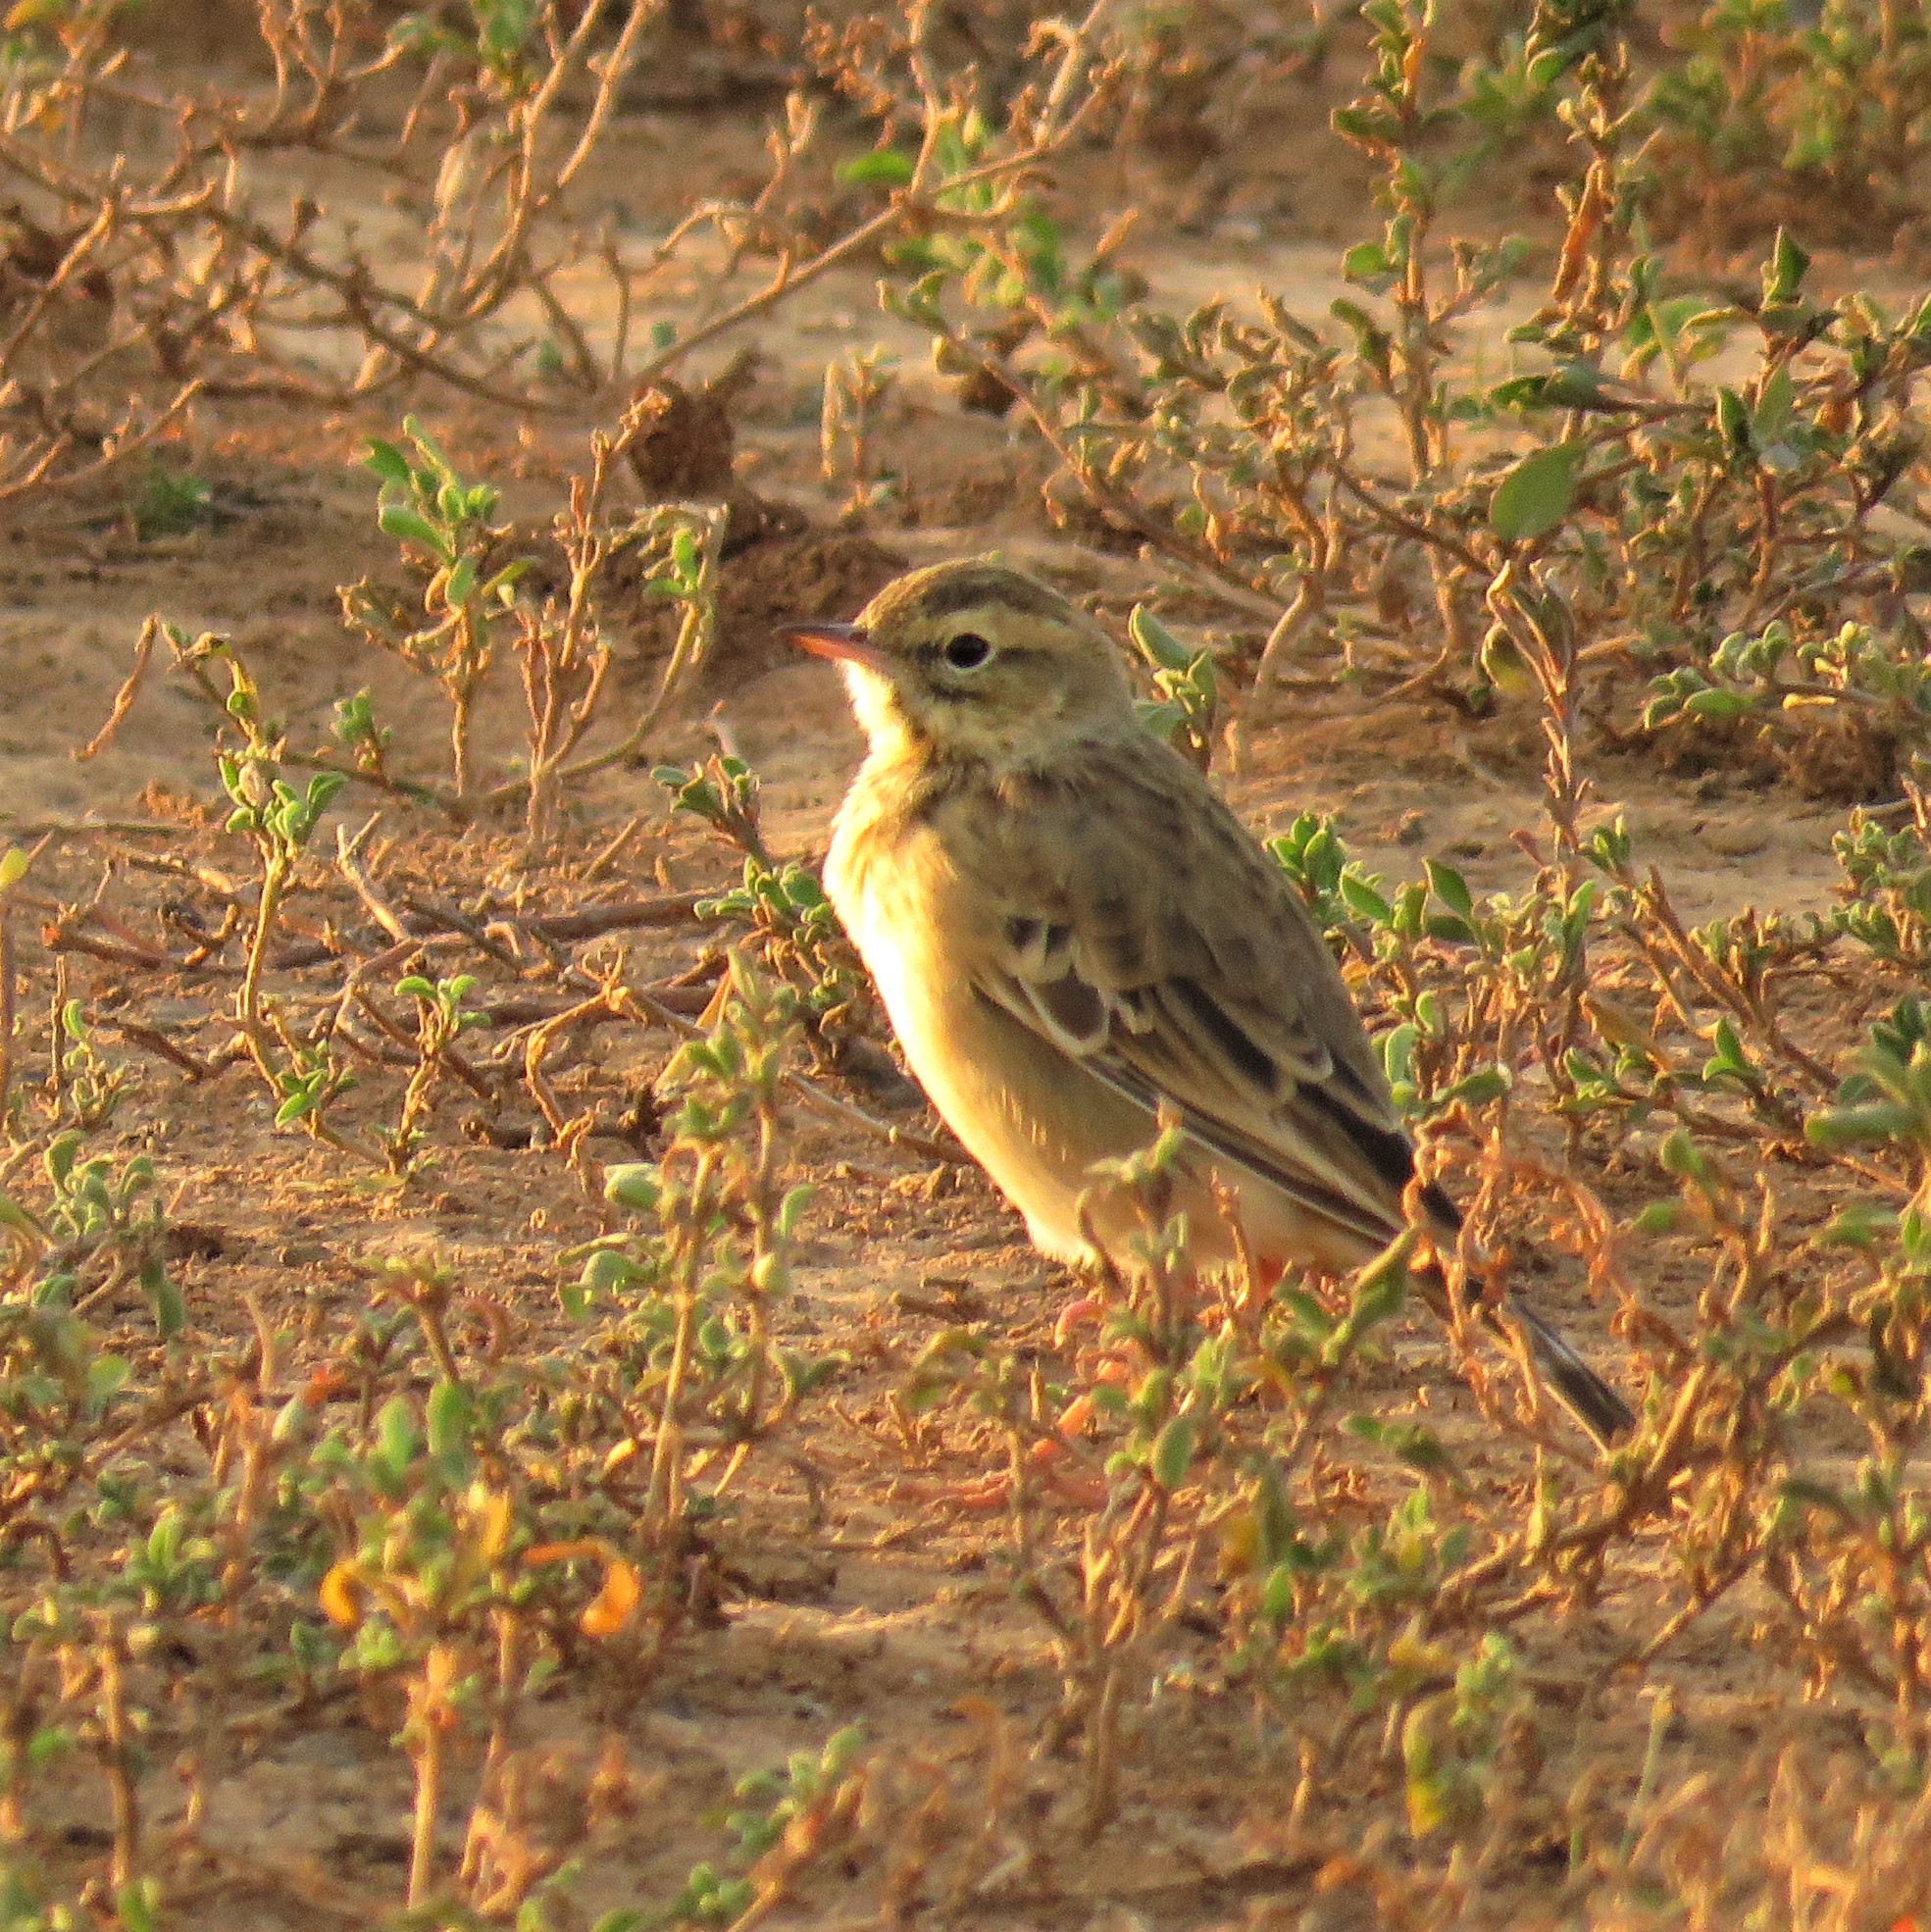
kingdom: Animalia
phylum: Chordata
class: Aves
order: Passeriformes
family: Motacillidae
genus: Anthus
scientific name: Anthus cinnamomeus
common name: African pipit
